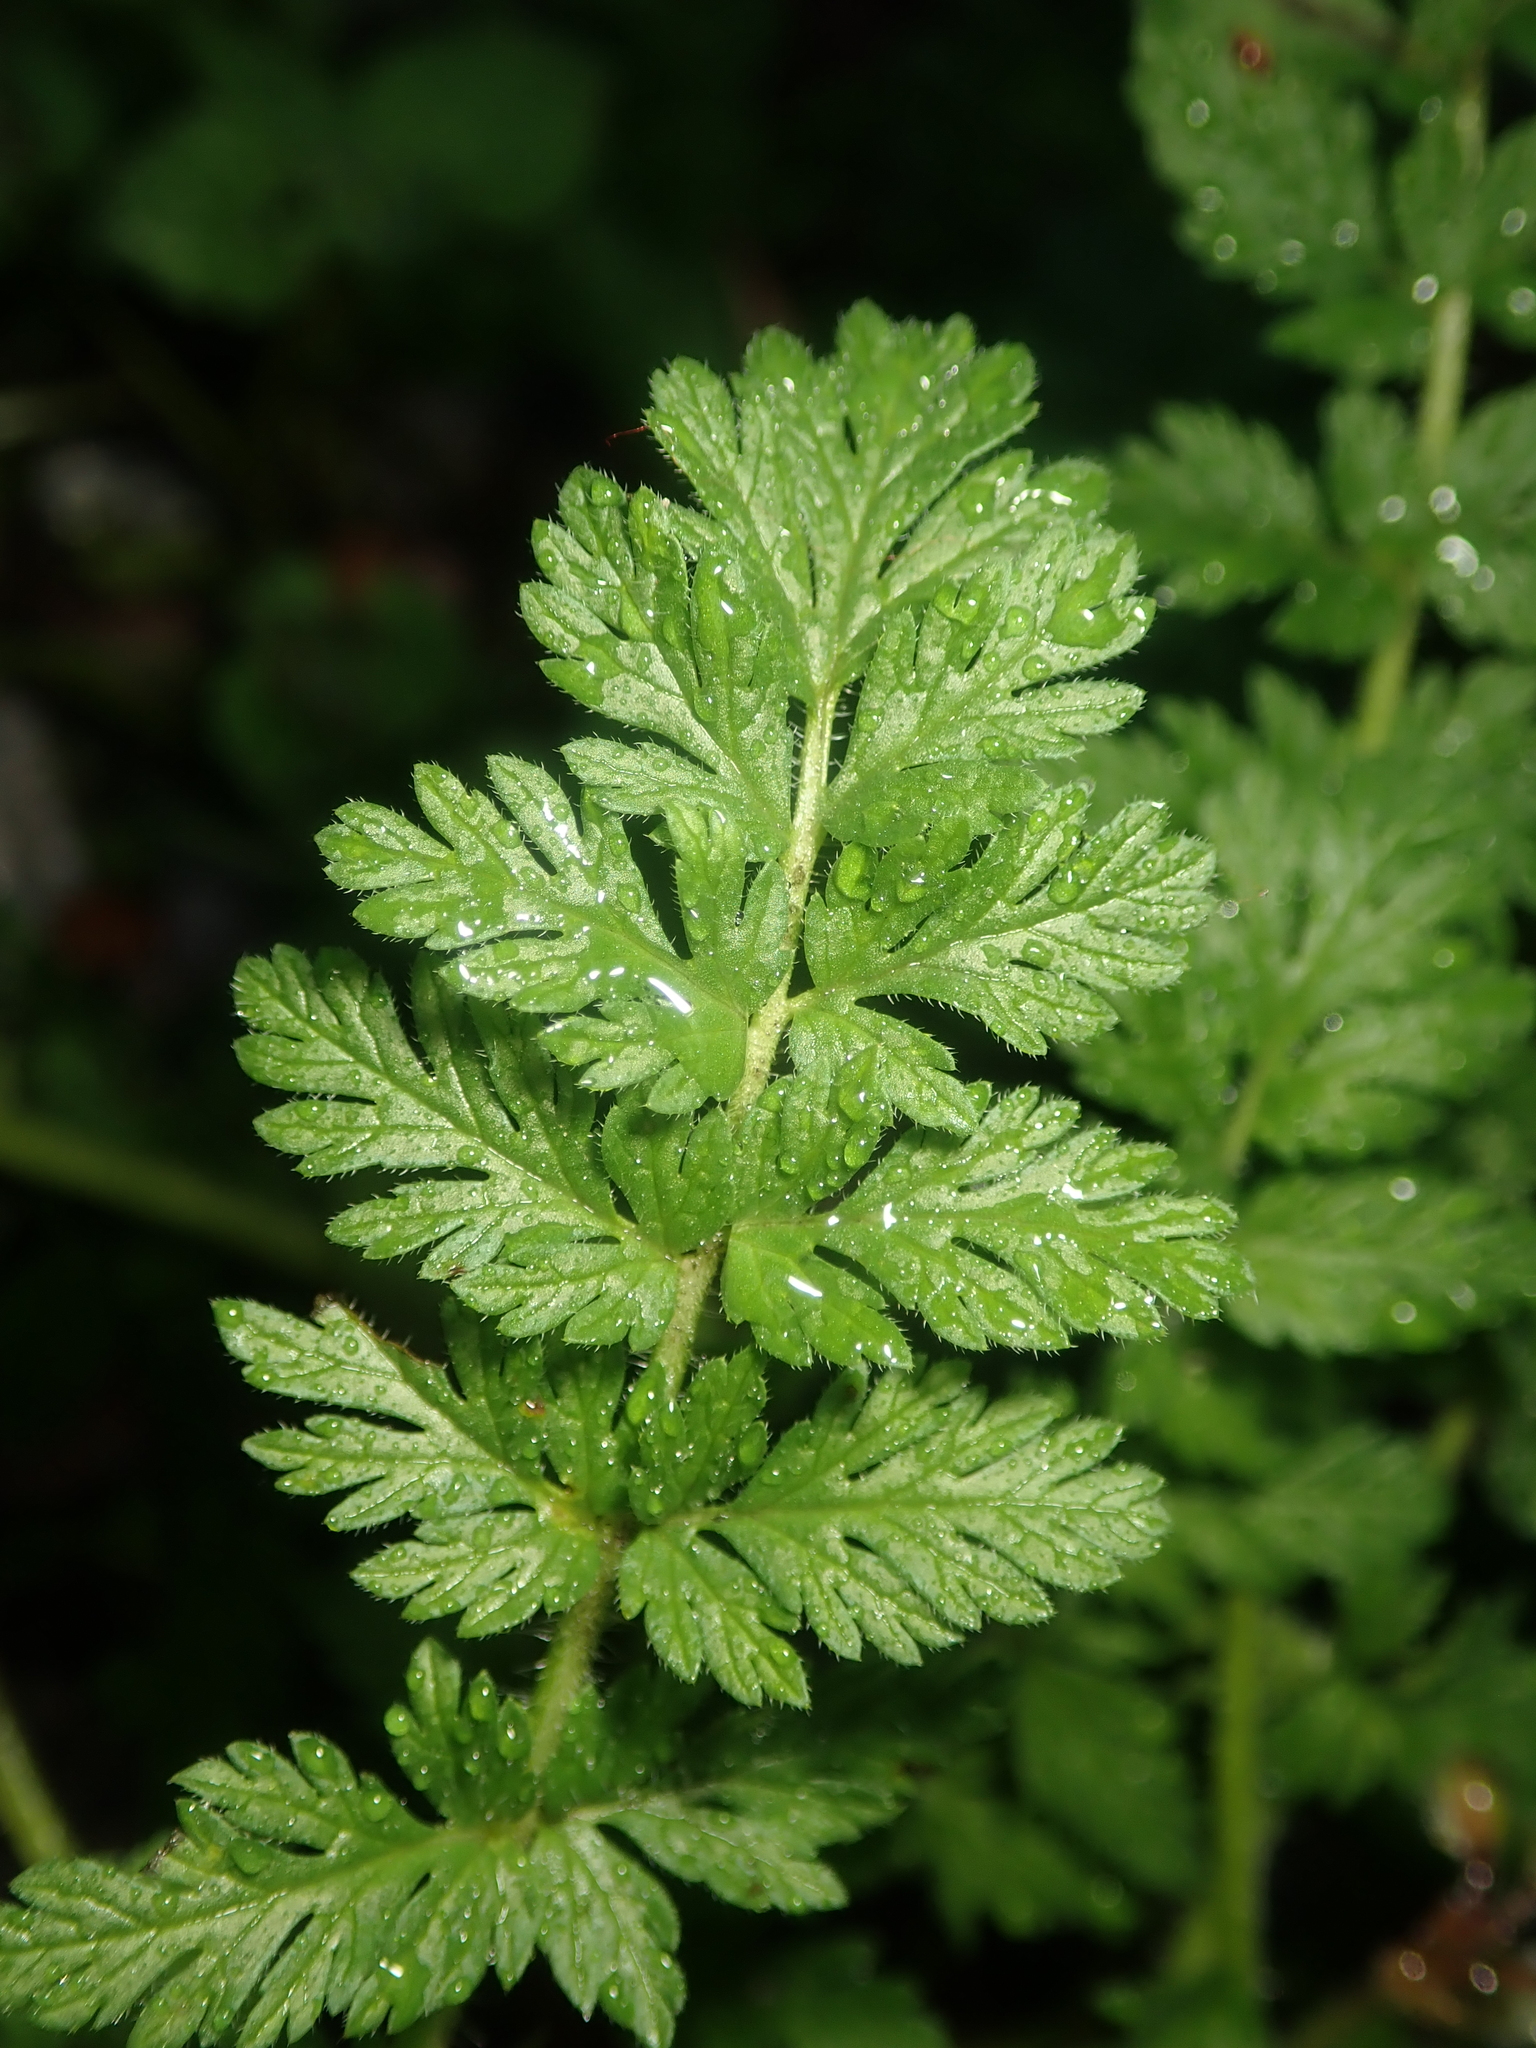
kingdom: Plantae
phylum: Tracheophyta
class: Magnoliopsida
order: Geraniales
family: Geraniaceae
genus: Erodium
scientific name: Erodium cicutarium
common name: Common stork's-bill
